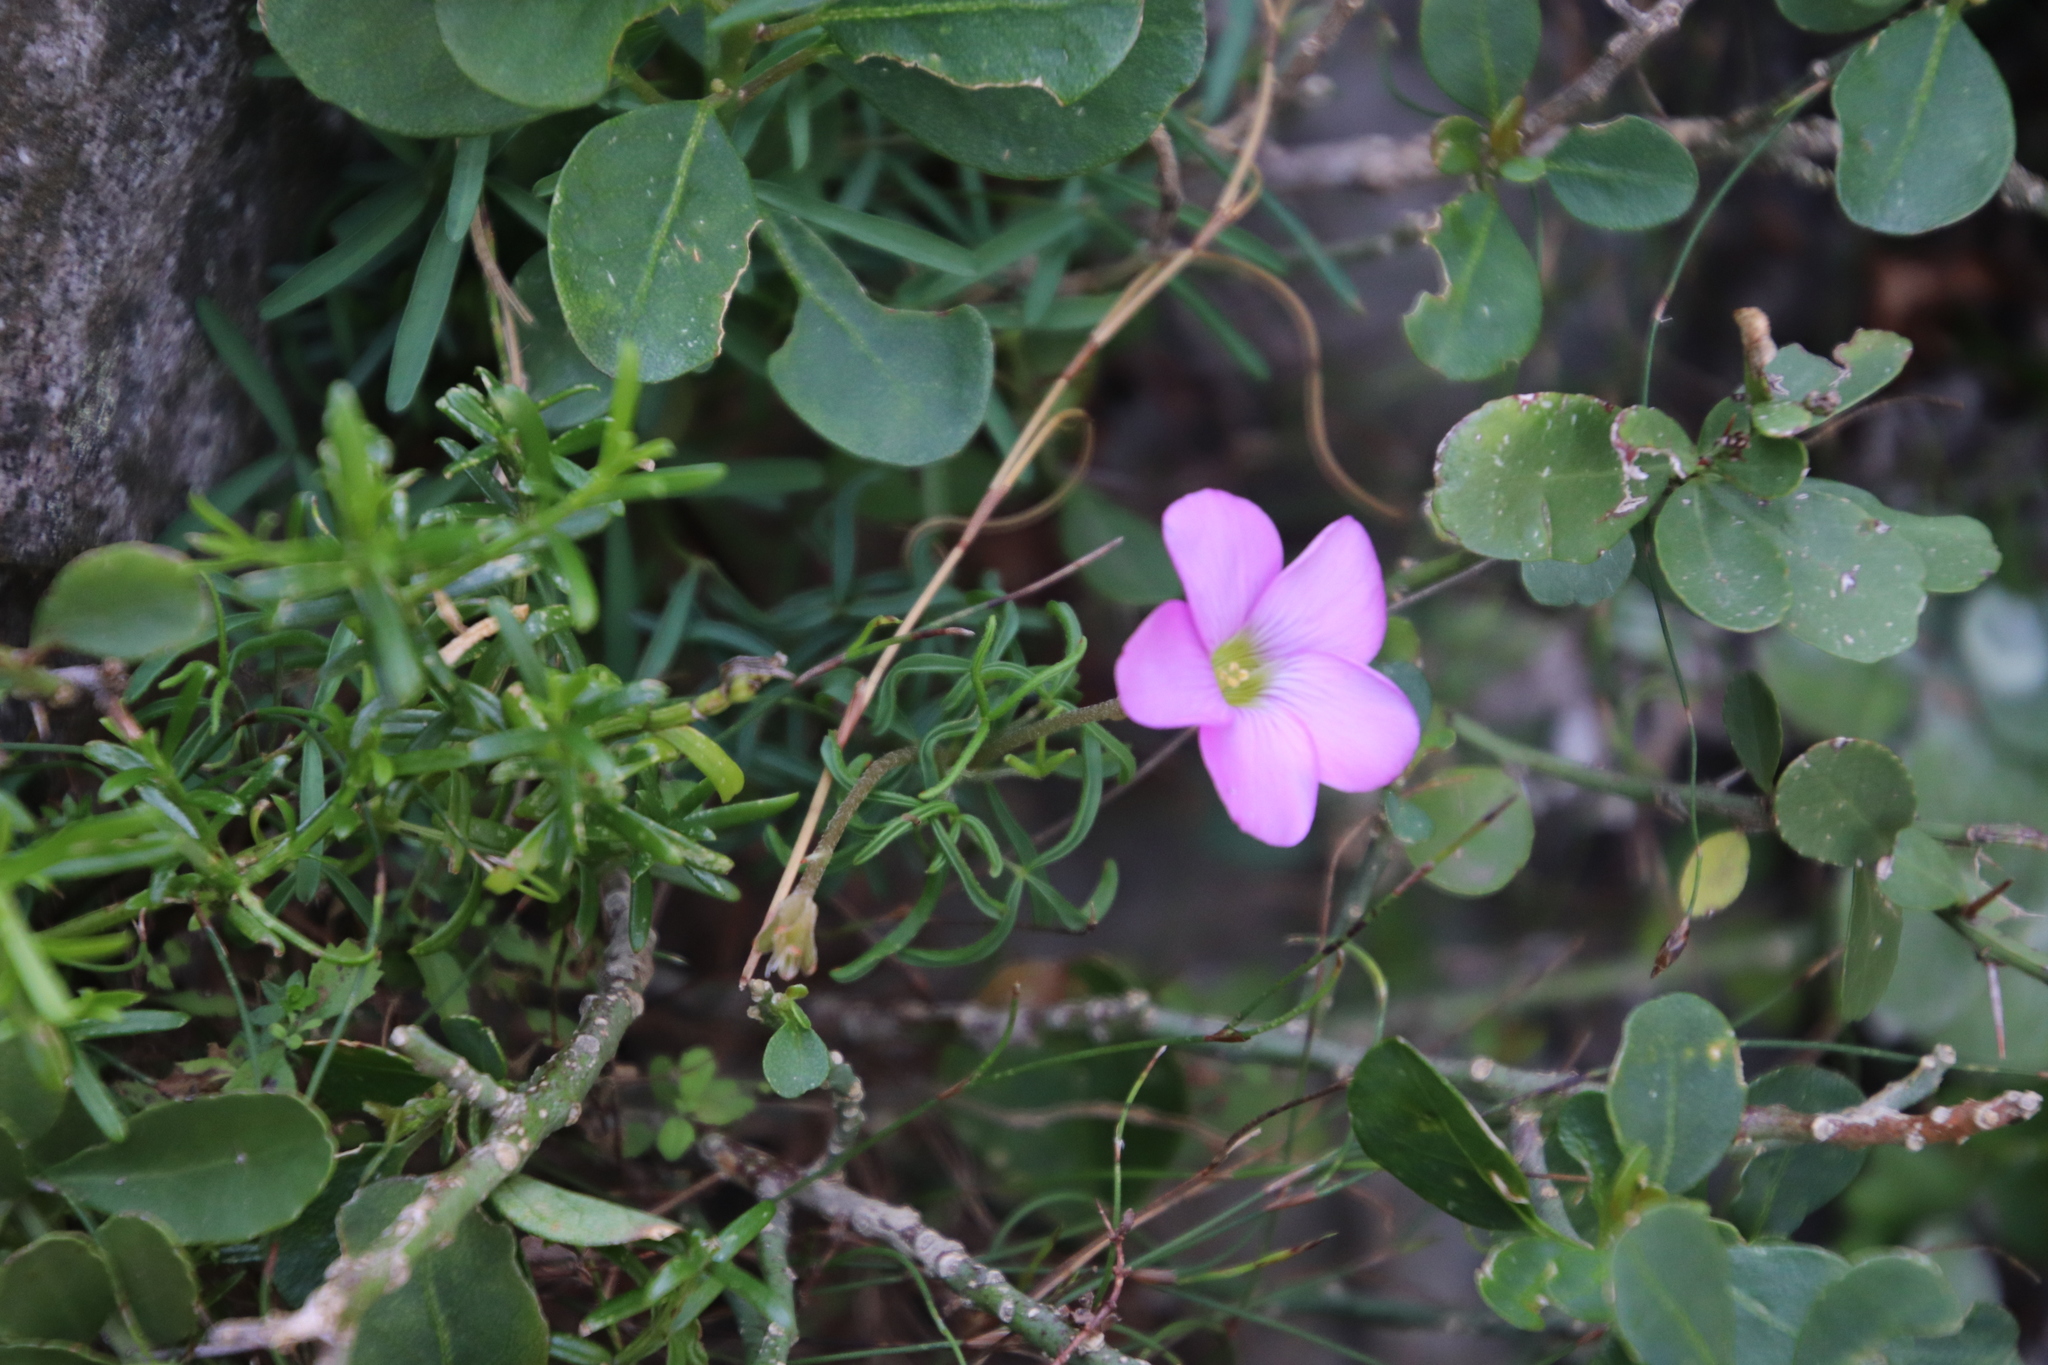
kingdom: Plantae
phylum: Tracheophyta
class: Magnoliopsida
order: Oxalidales
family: Oxalidaceae
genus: Oxalis
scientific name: Oxalis polyphylla
